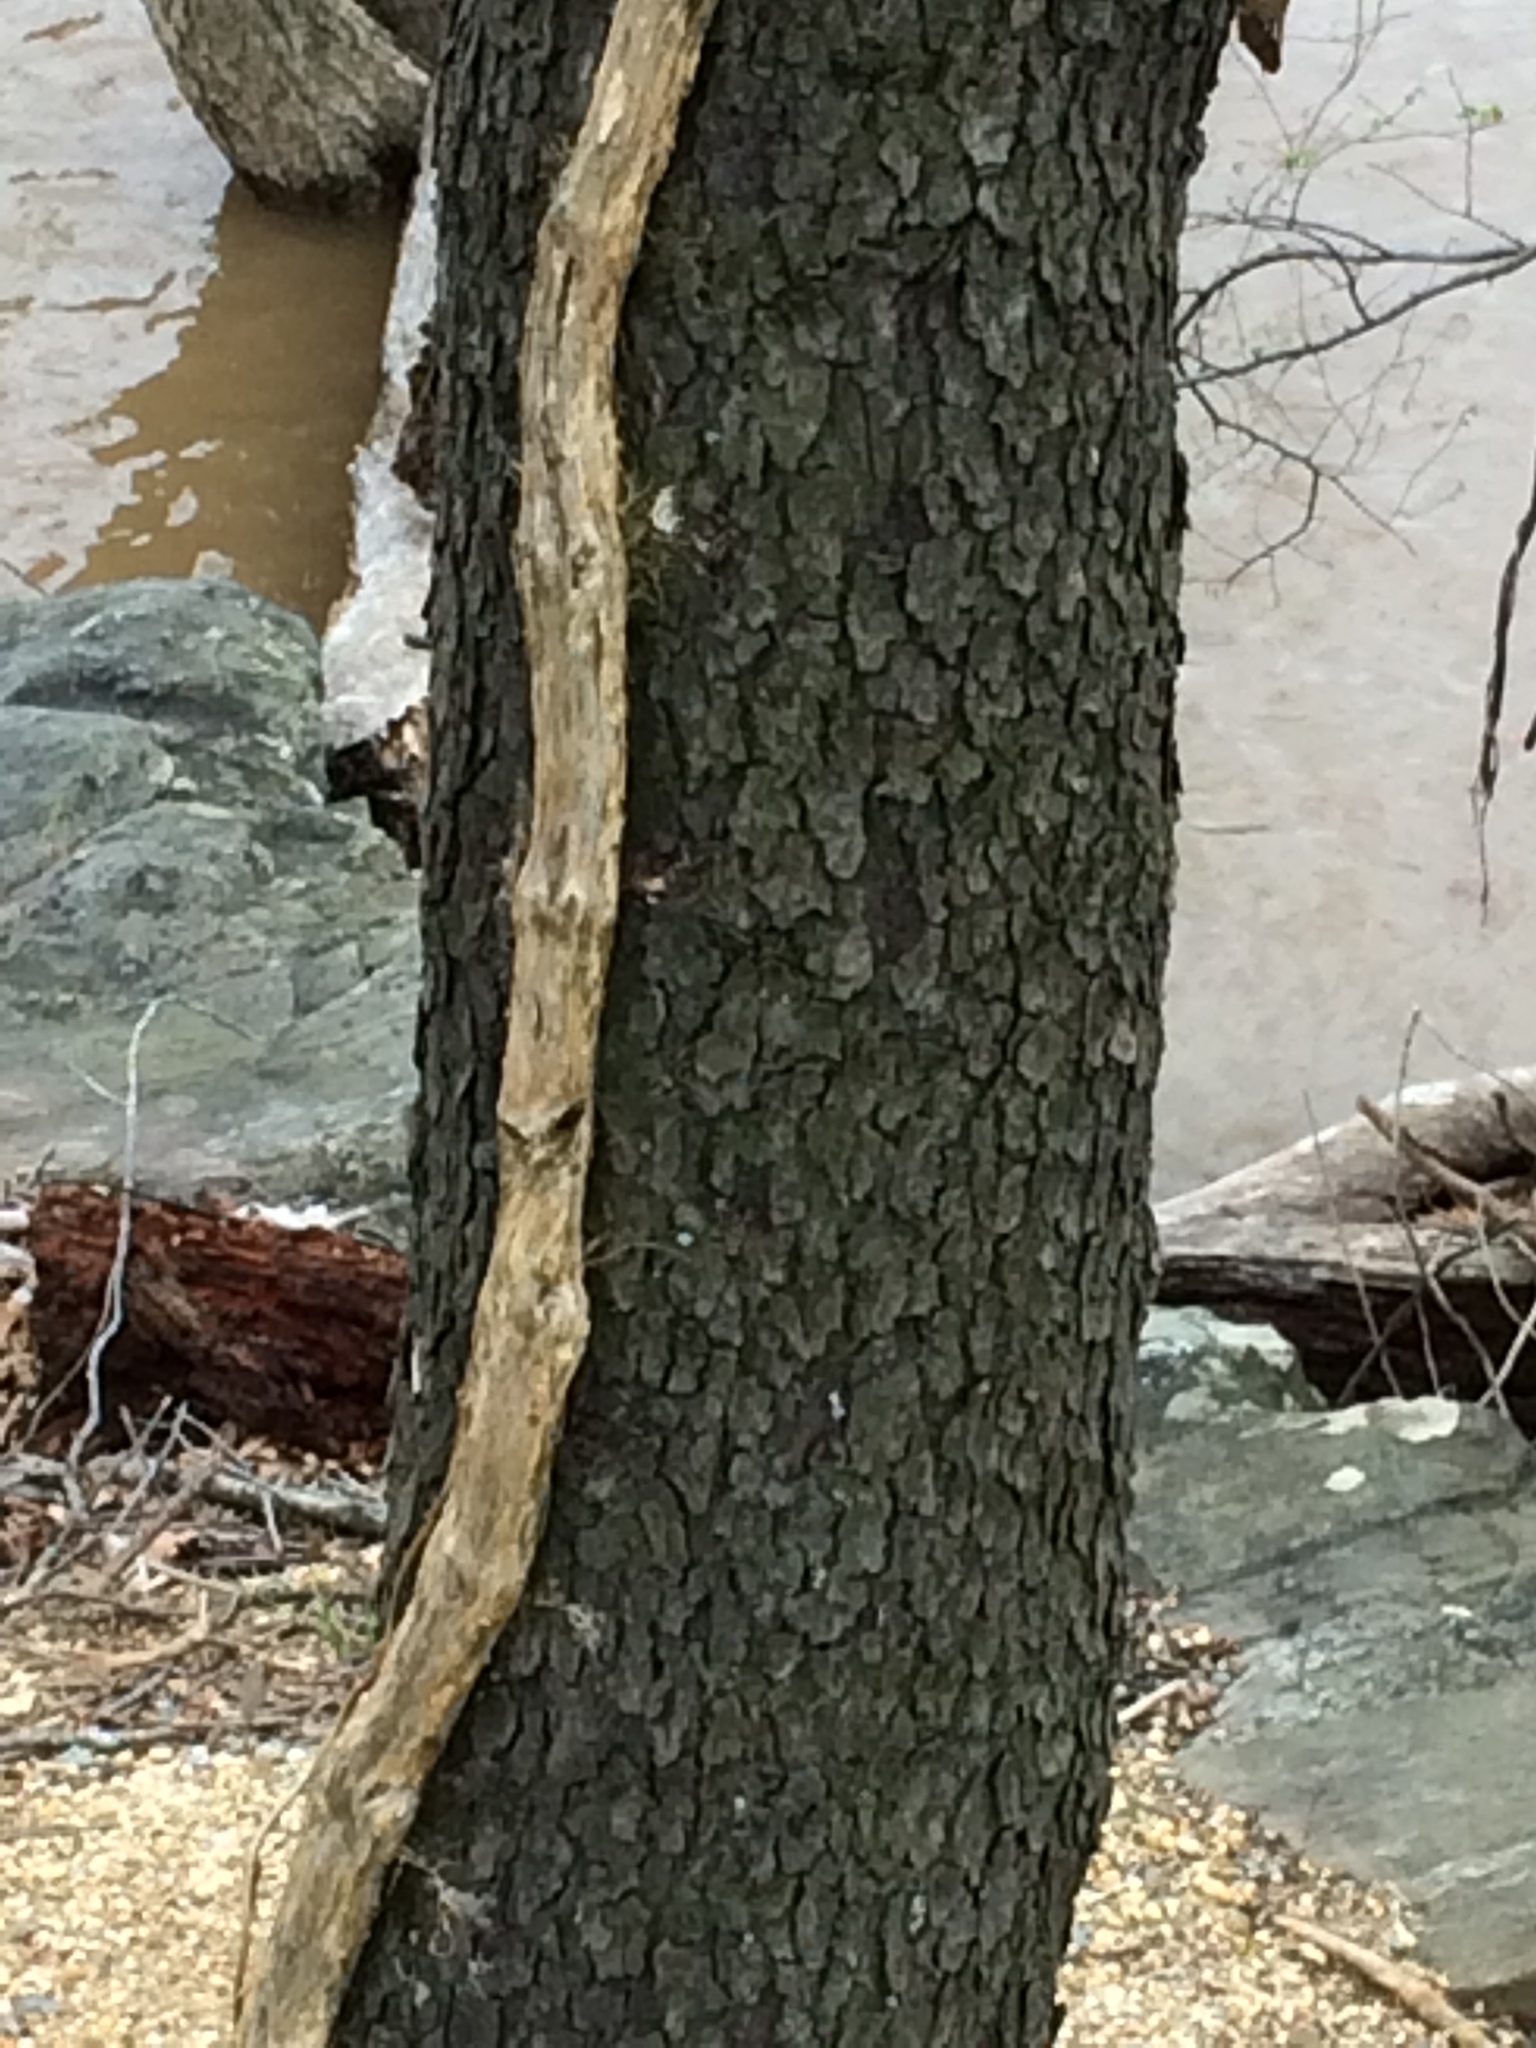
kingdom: Plantae
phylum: Tracheophyta
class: Magnoliopsida
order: Rosales
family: Rosaceae
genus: Prunus
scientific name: Prunus serotina
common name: Black cherry
